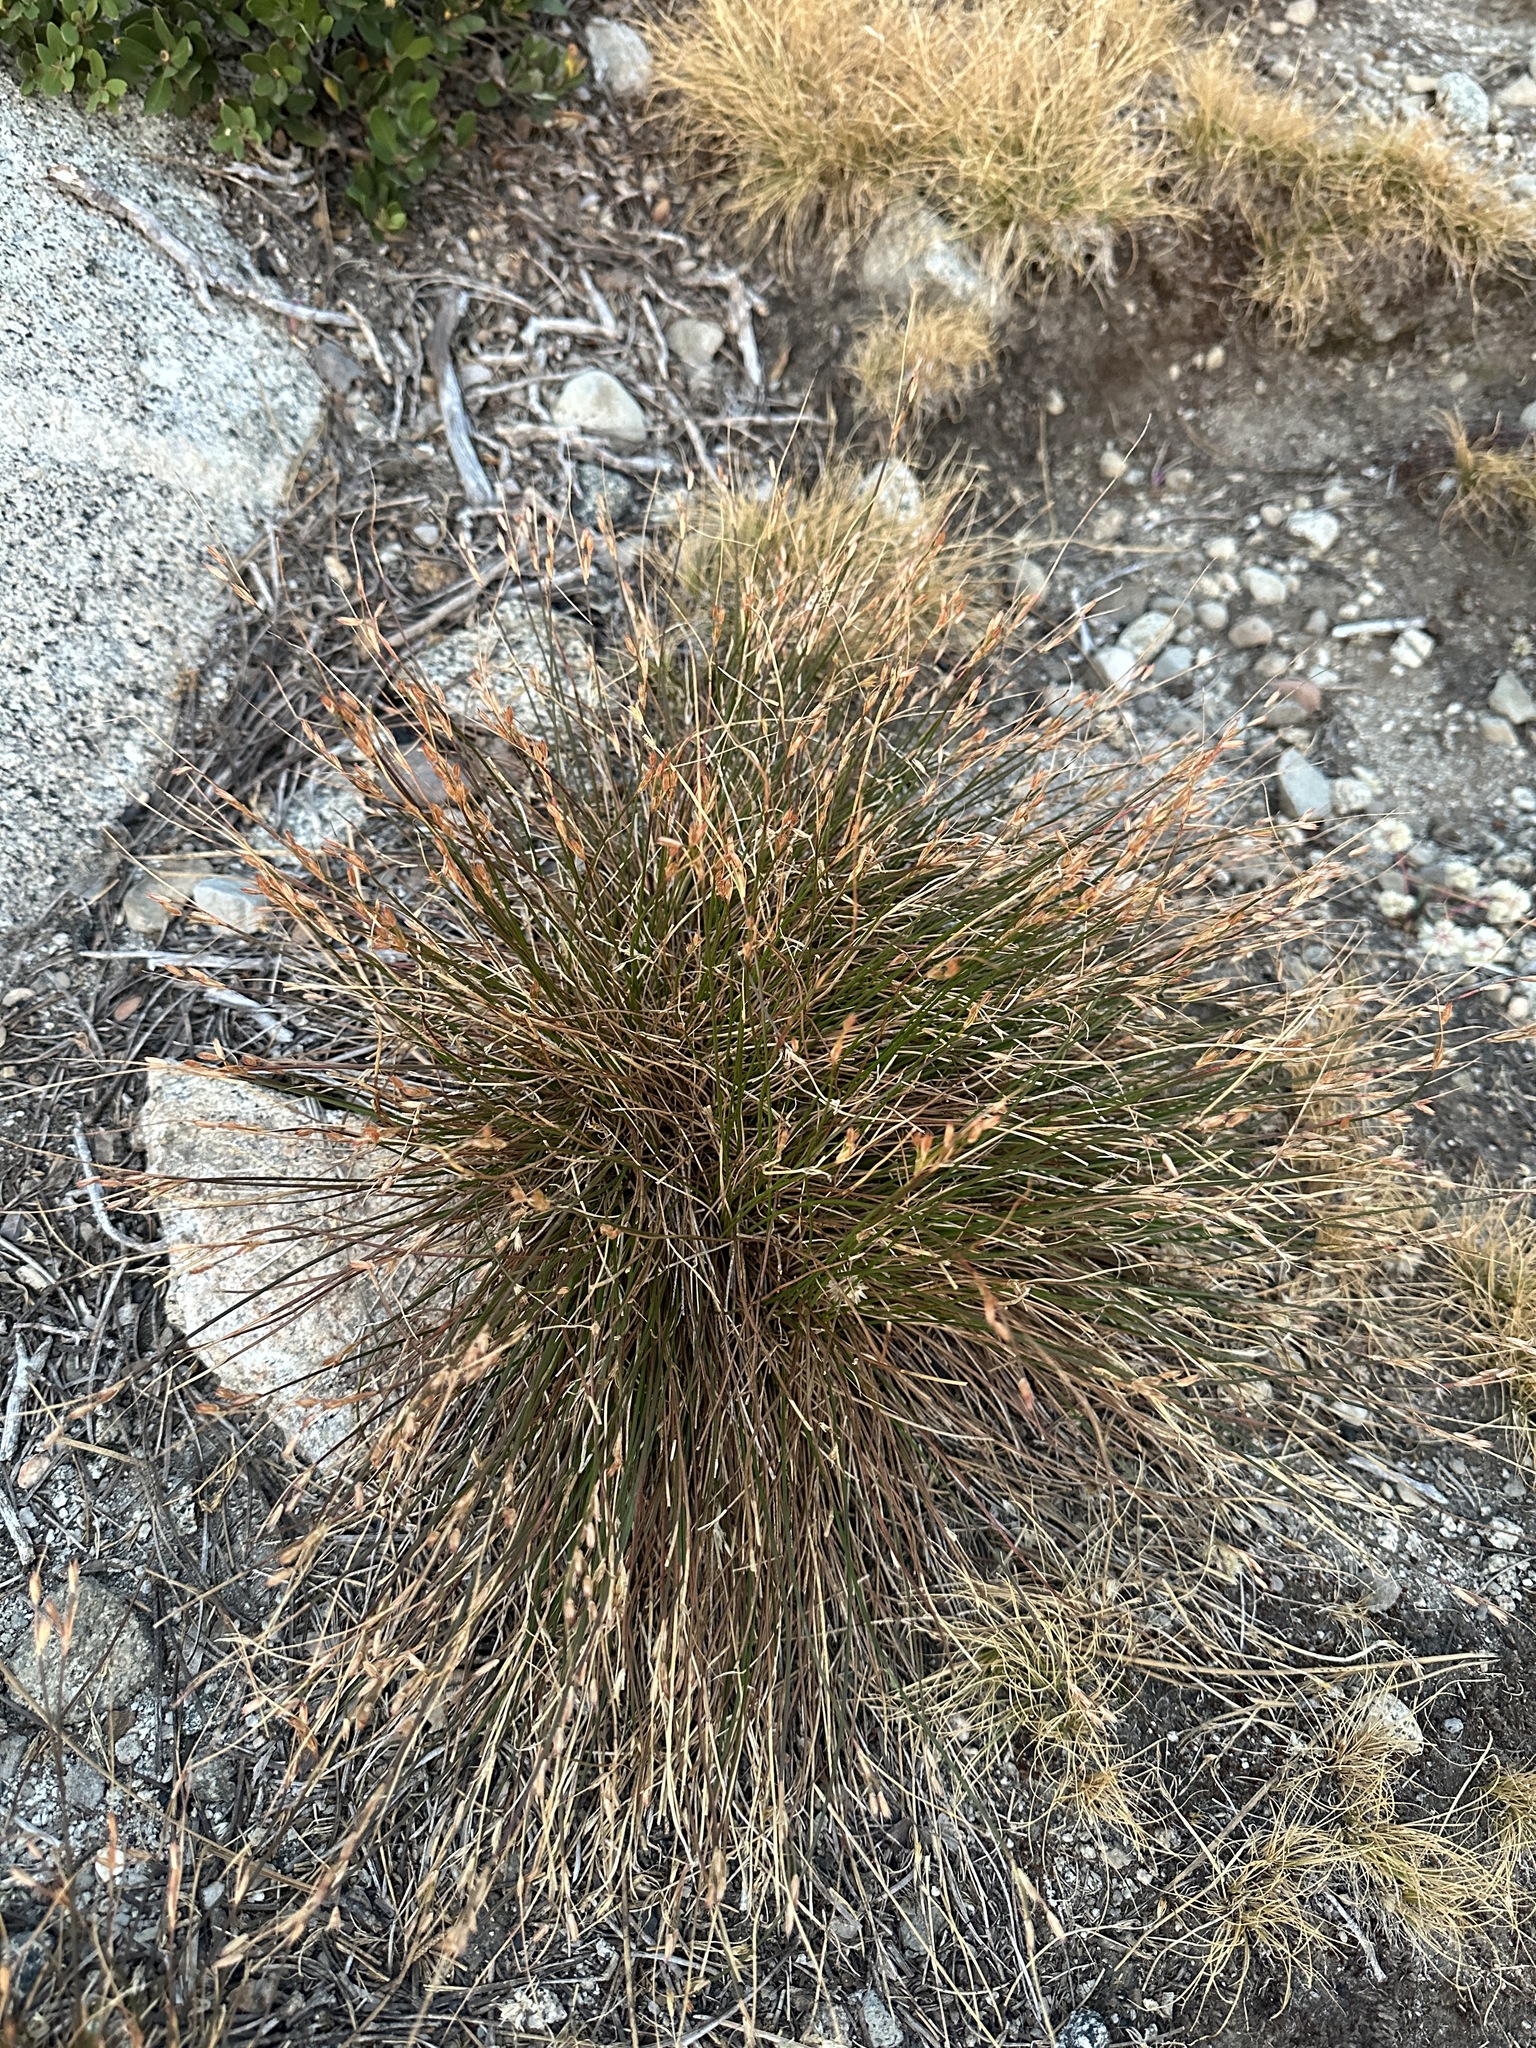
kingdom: Plantae
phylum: Tracheophyta
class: Liliopsida
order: Poales
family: Juncaceae
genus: Juncus
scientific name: Juncus parryi
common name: Parry's rush
